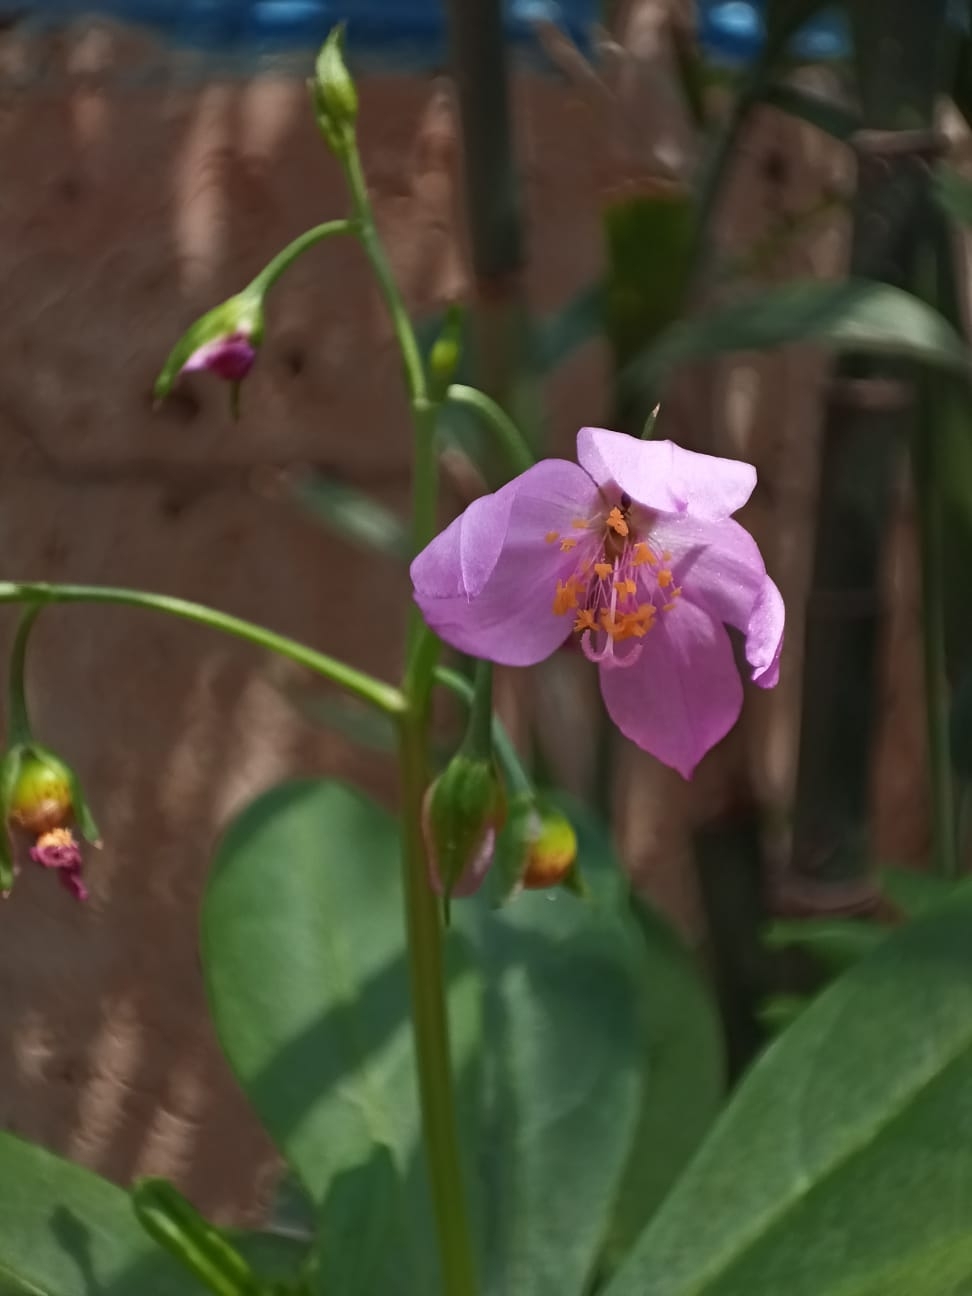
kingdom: Plantae
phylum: Tracheophyta
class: Magnoliopsida
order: Caryophyllales
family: Talinaceae
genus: Talinum
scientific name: Talinum fruticosum
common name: Verdolaga-francesa
